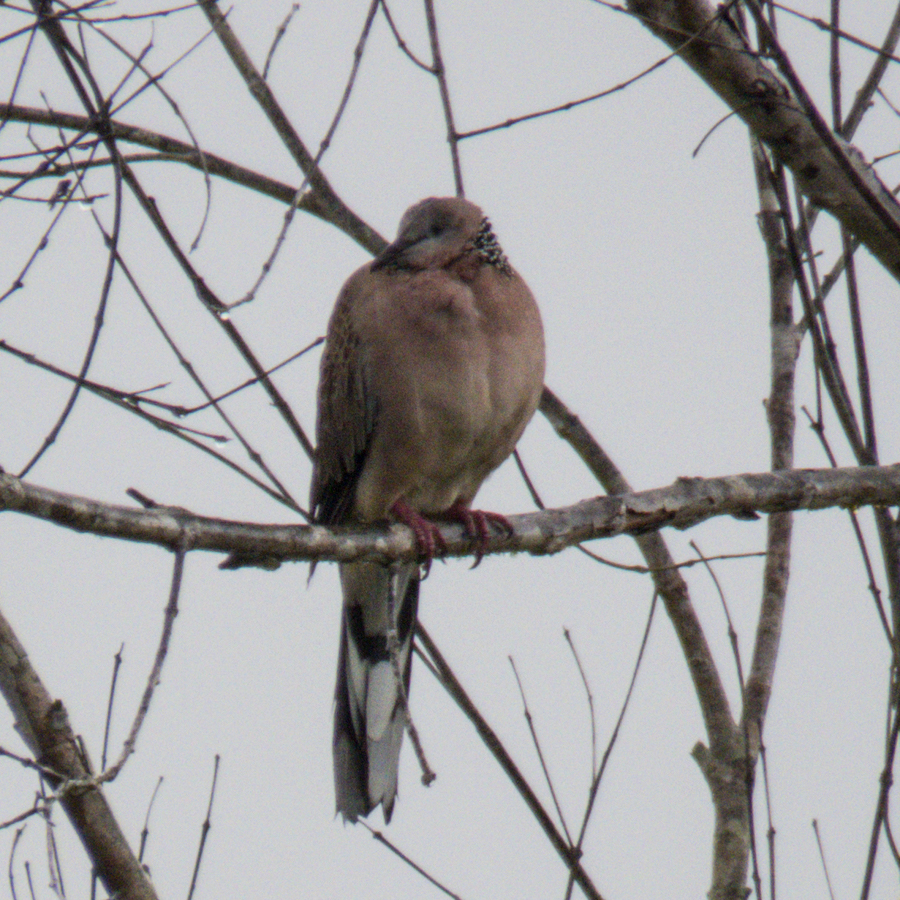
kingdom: Animalia
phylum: Chordata
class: Aves
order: Columbiformes
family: Columbidae
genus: Spilopelia
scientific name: Spilopelia chinensis
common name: Spotted dove
